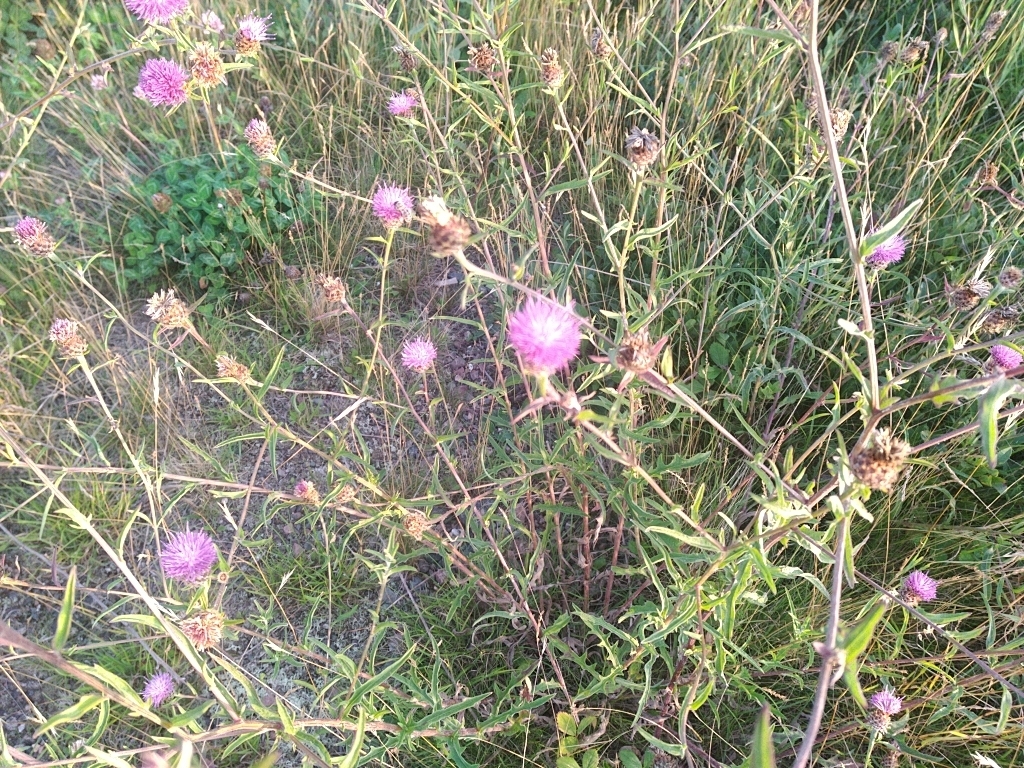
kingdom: Plantae
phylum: Tracheophyta
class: Magnoliopsida
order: Asterales
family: Asteraceae
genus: Centaurea
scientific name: Centaurea nigra
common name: Lesser knapweed
